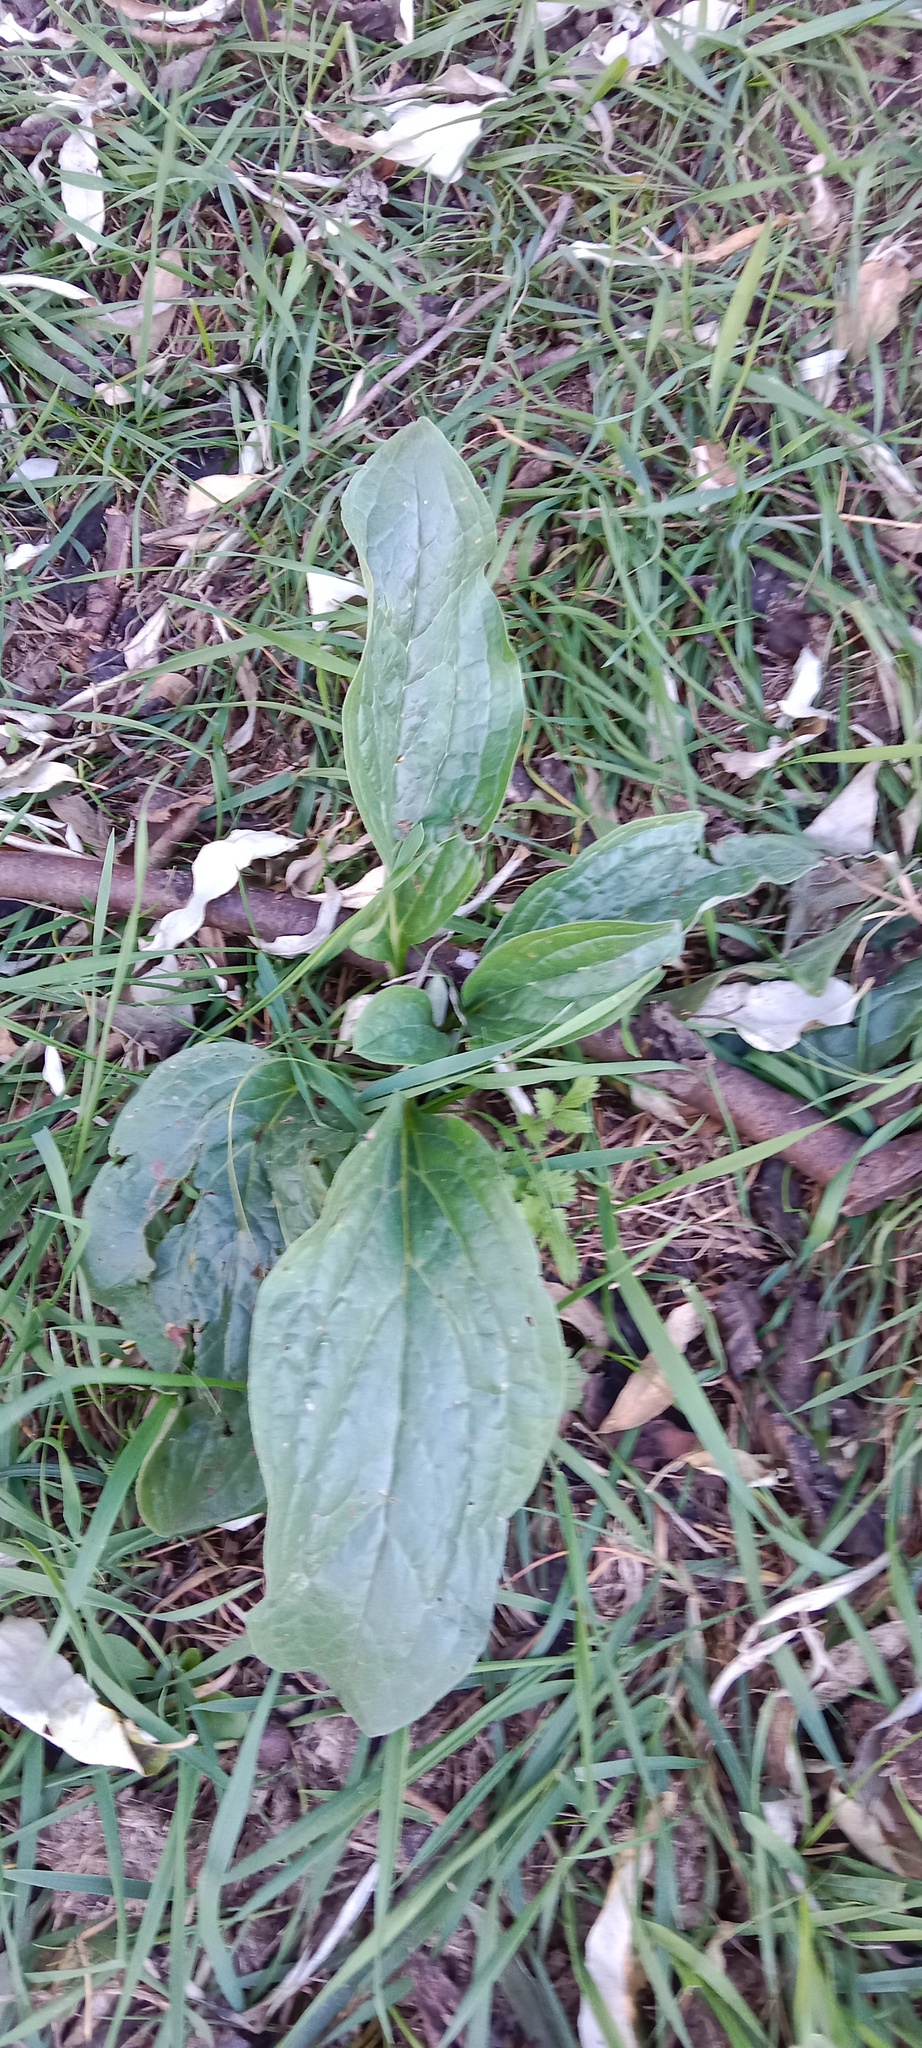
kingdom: Plantae
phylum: Tracheophyta
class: Magnoliopsida
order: Boraginales
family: Boraginaceae
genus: Cynoglossum
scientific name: Cynoglossum officinale
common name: Hound's-tongue
